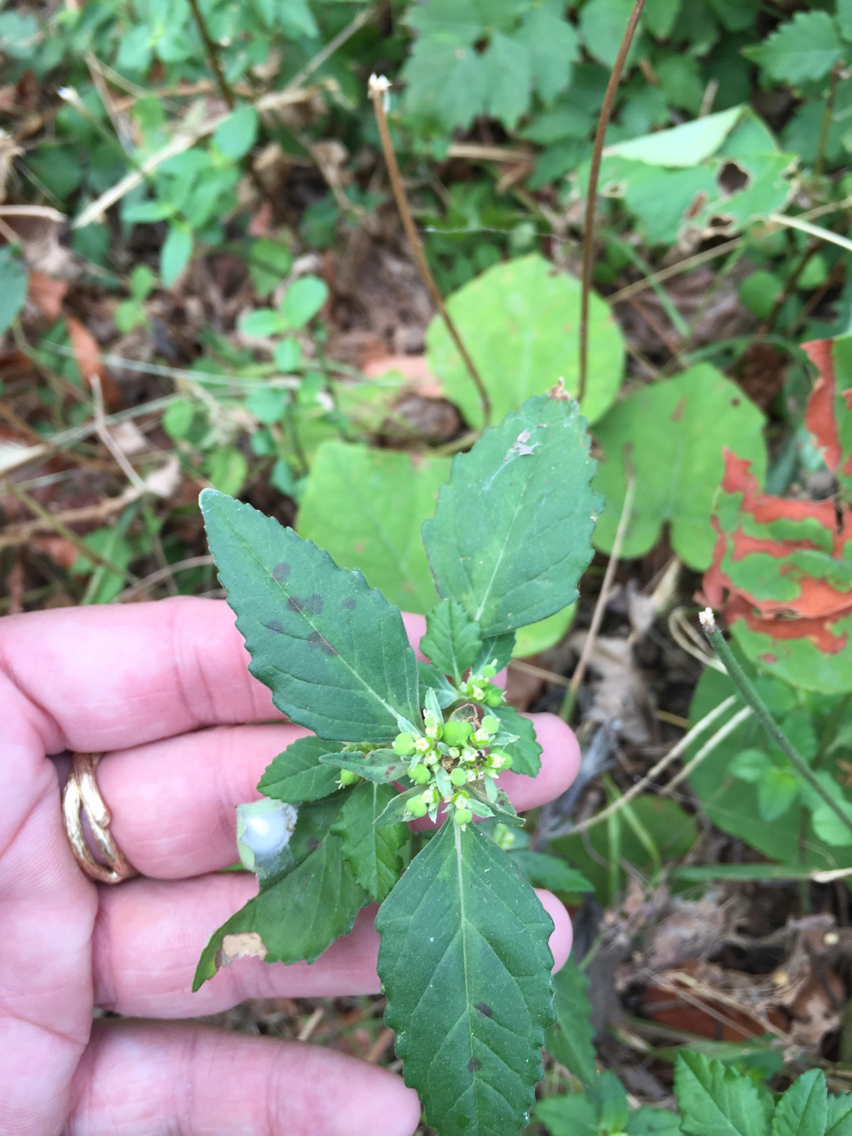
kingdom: Plantae
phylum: Tracheophyta
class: Magnoliopsida
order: Malpighiales
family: Euphorbiaceae
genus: Euphorbia
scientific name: Euphorbia dentata
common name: Dentate spurge
